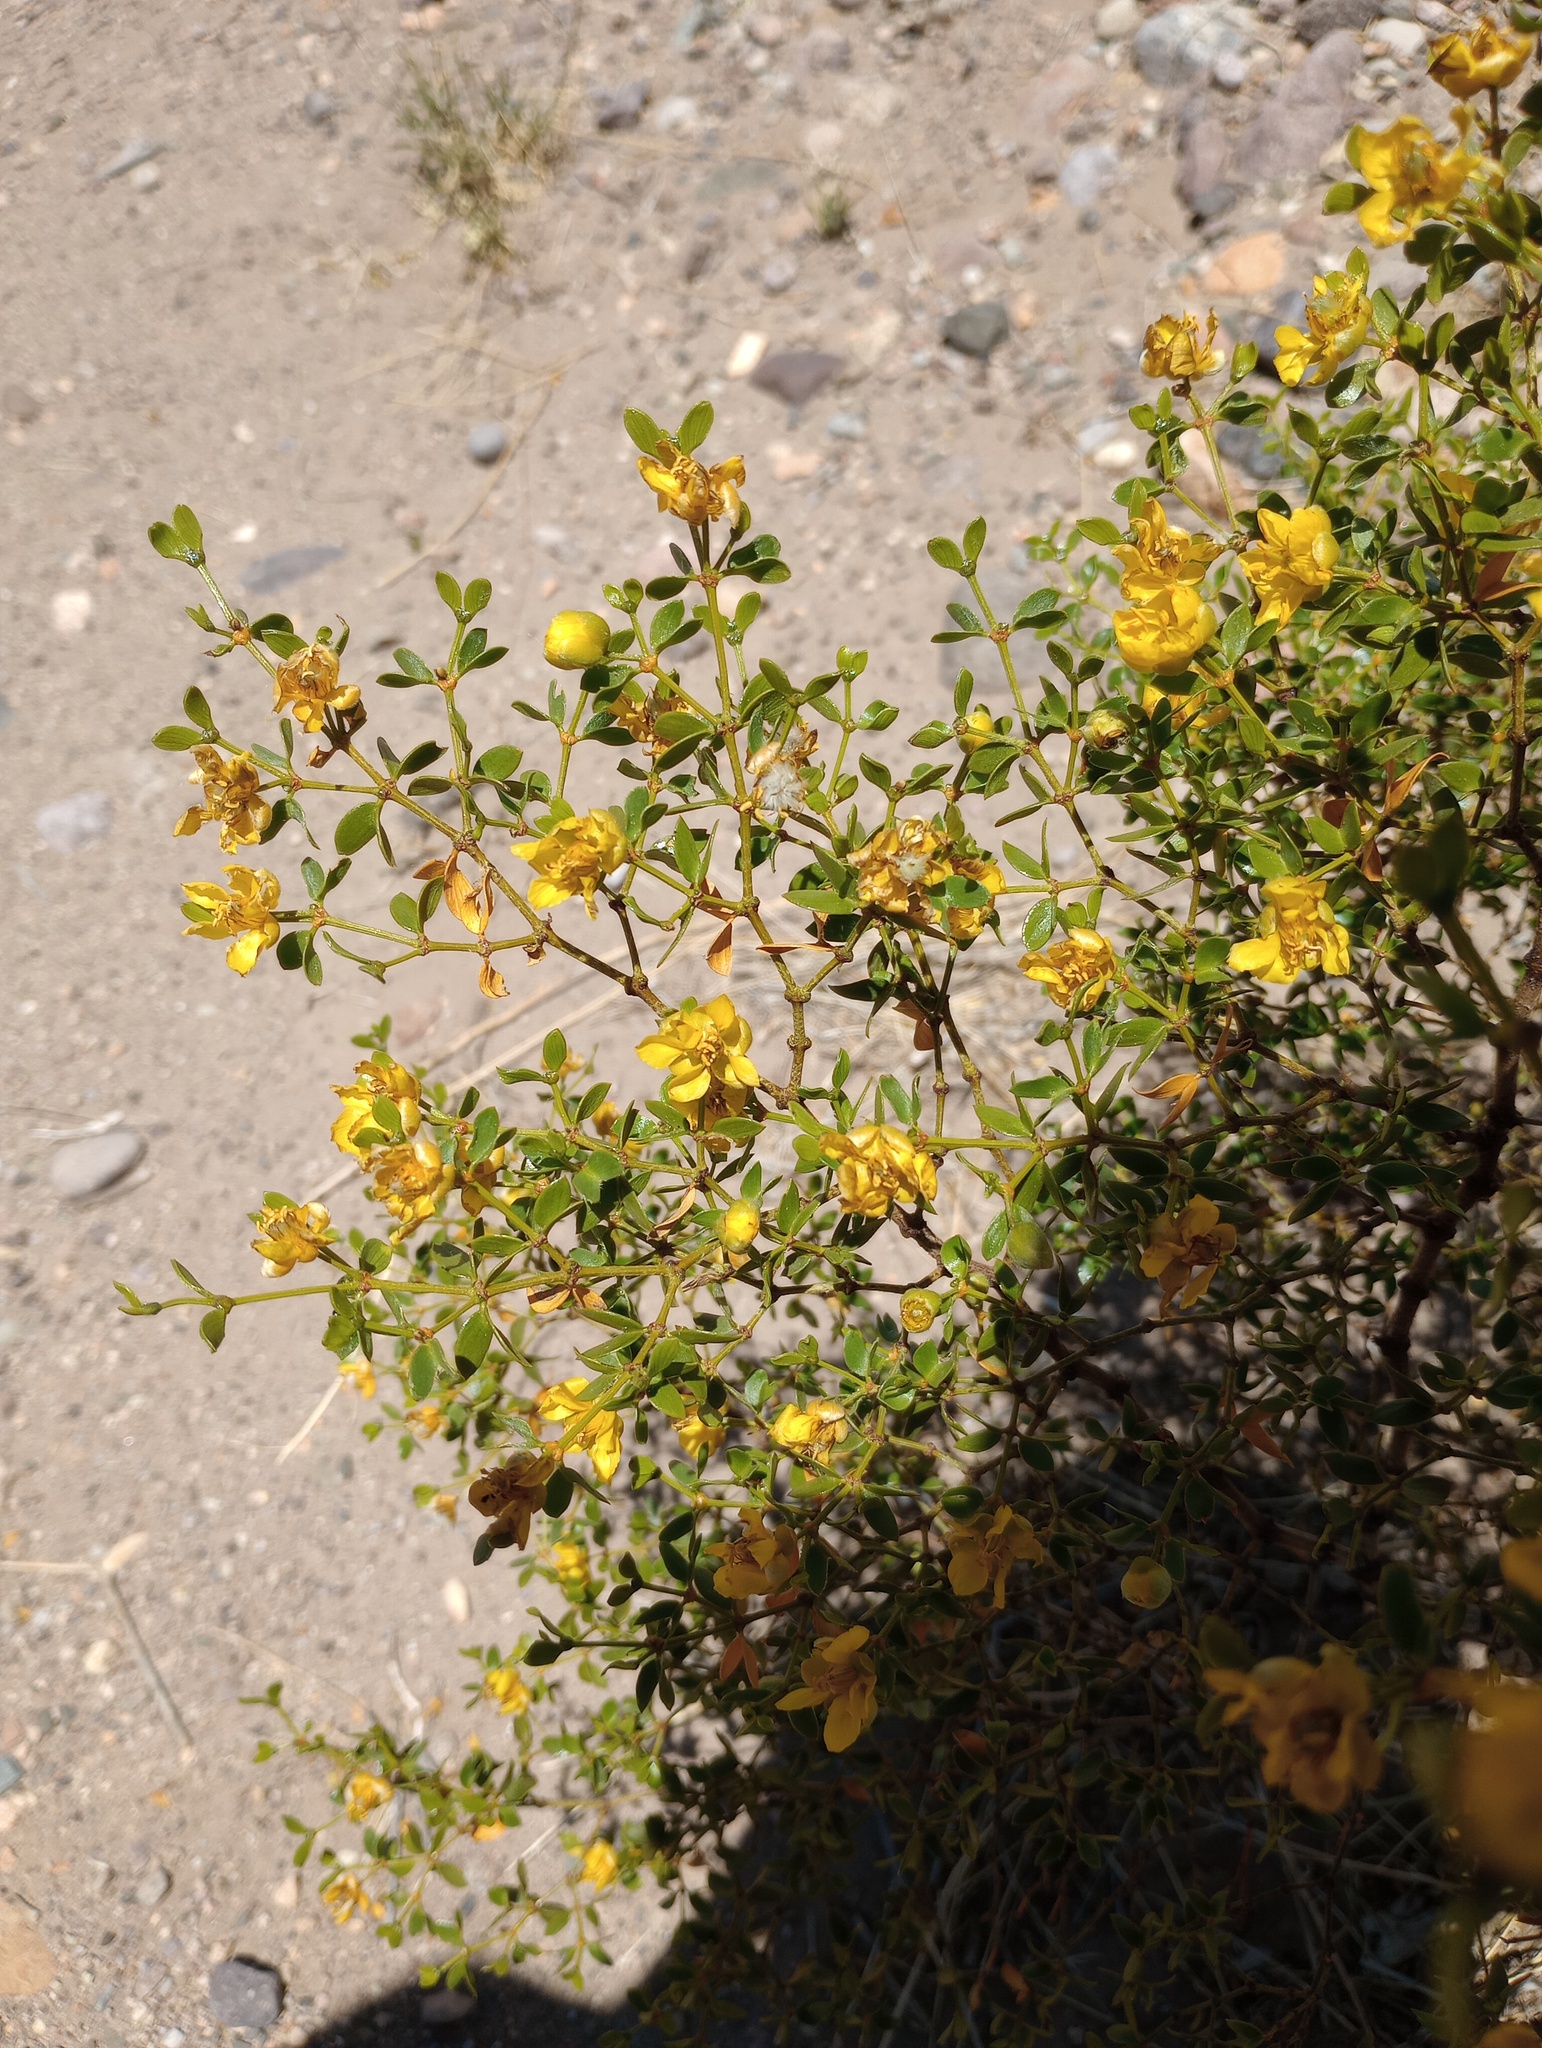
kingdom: Plantae
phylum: Tracheophyta
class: Magnoliopsida
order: Zygophyllales
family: Zygophyllaceae
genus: Larrea
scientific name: Larrea divaricata
